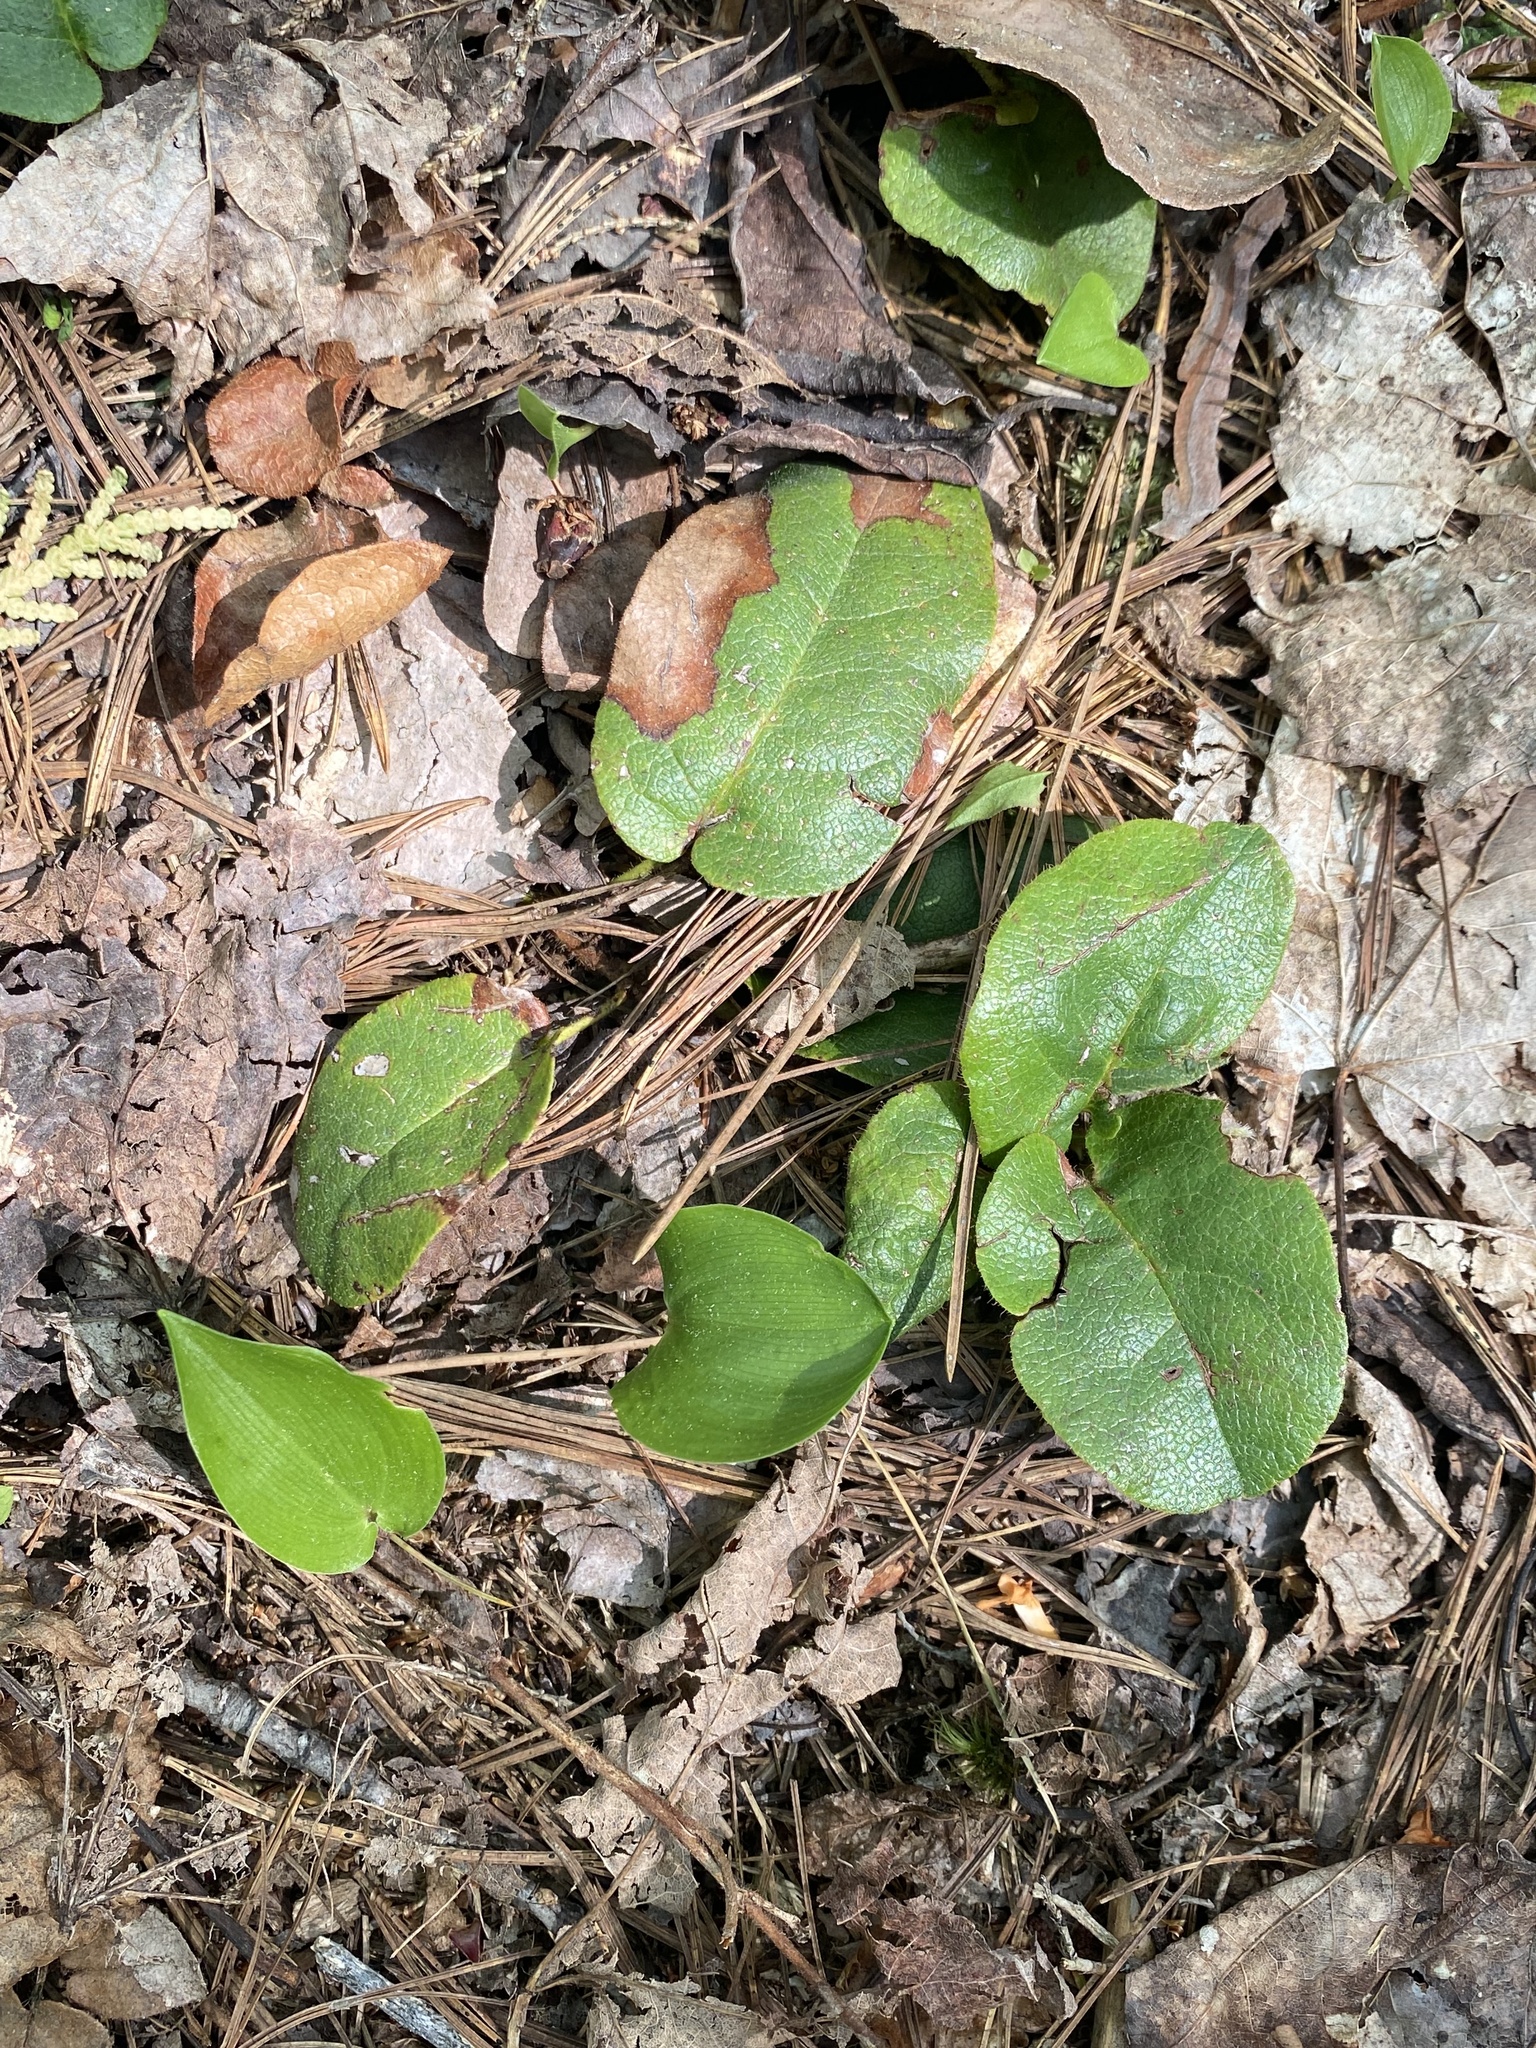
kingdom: Plantae
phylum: Tracheophyta
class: Magnoliopsida
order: Ericales
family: Ericaceae
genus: Epigaea
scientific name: Epigaea repens
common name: Gravelroot
